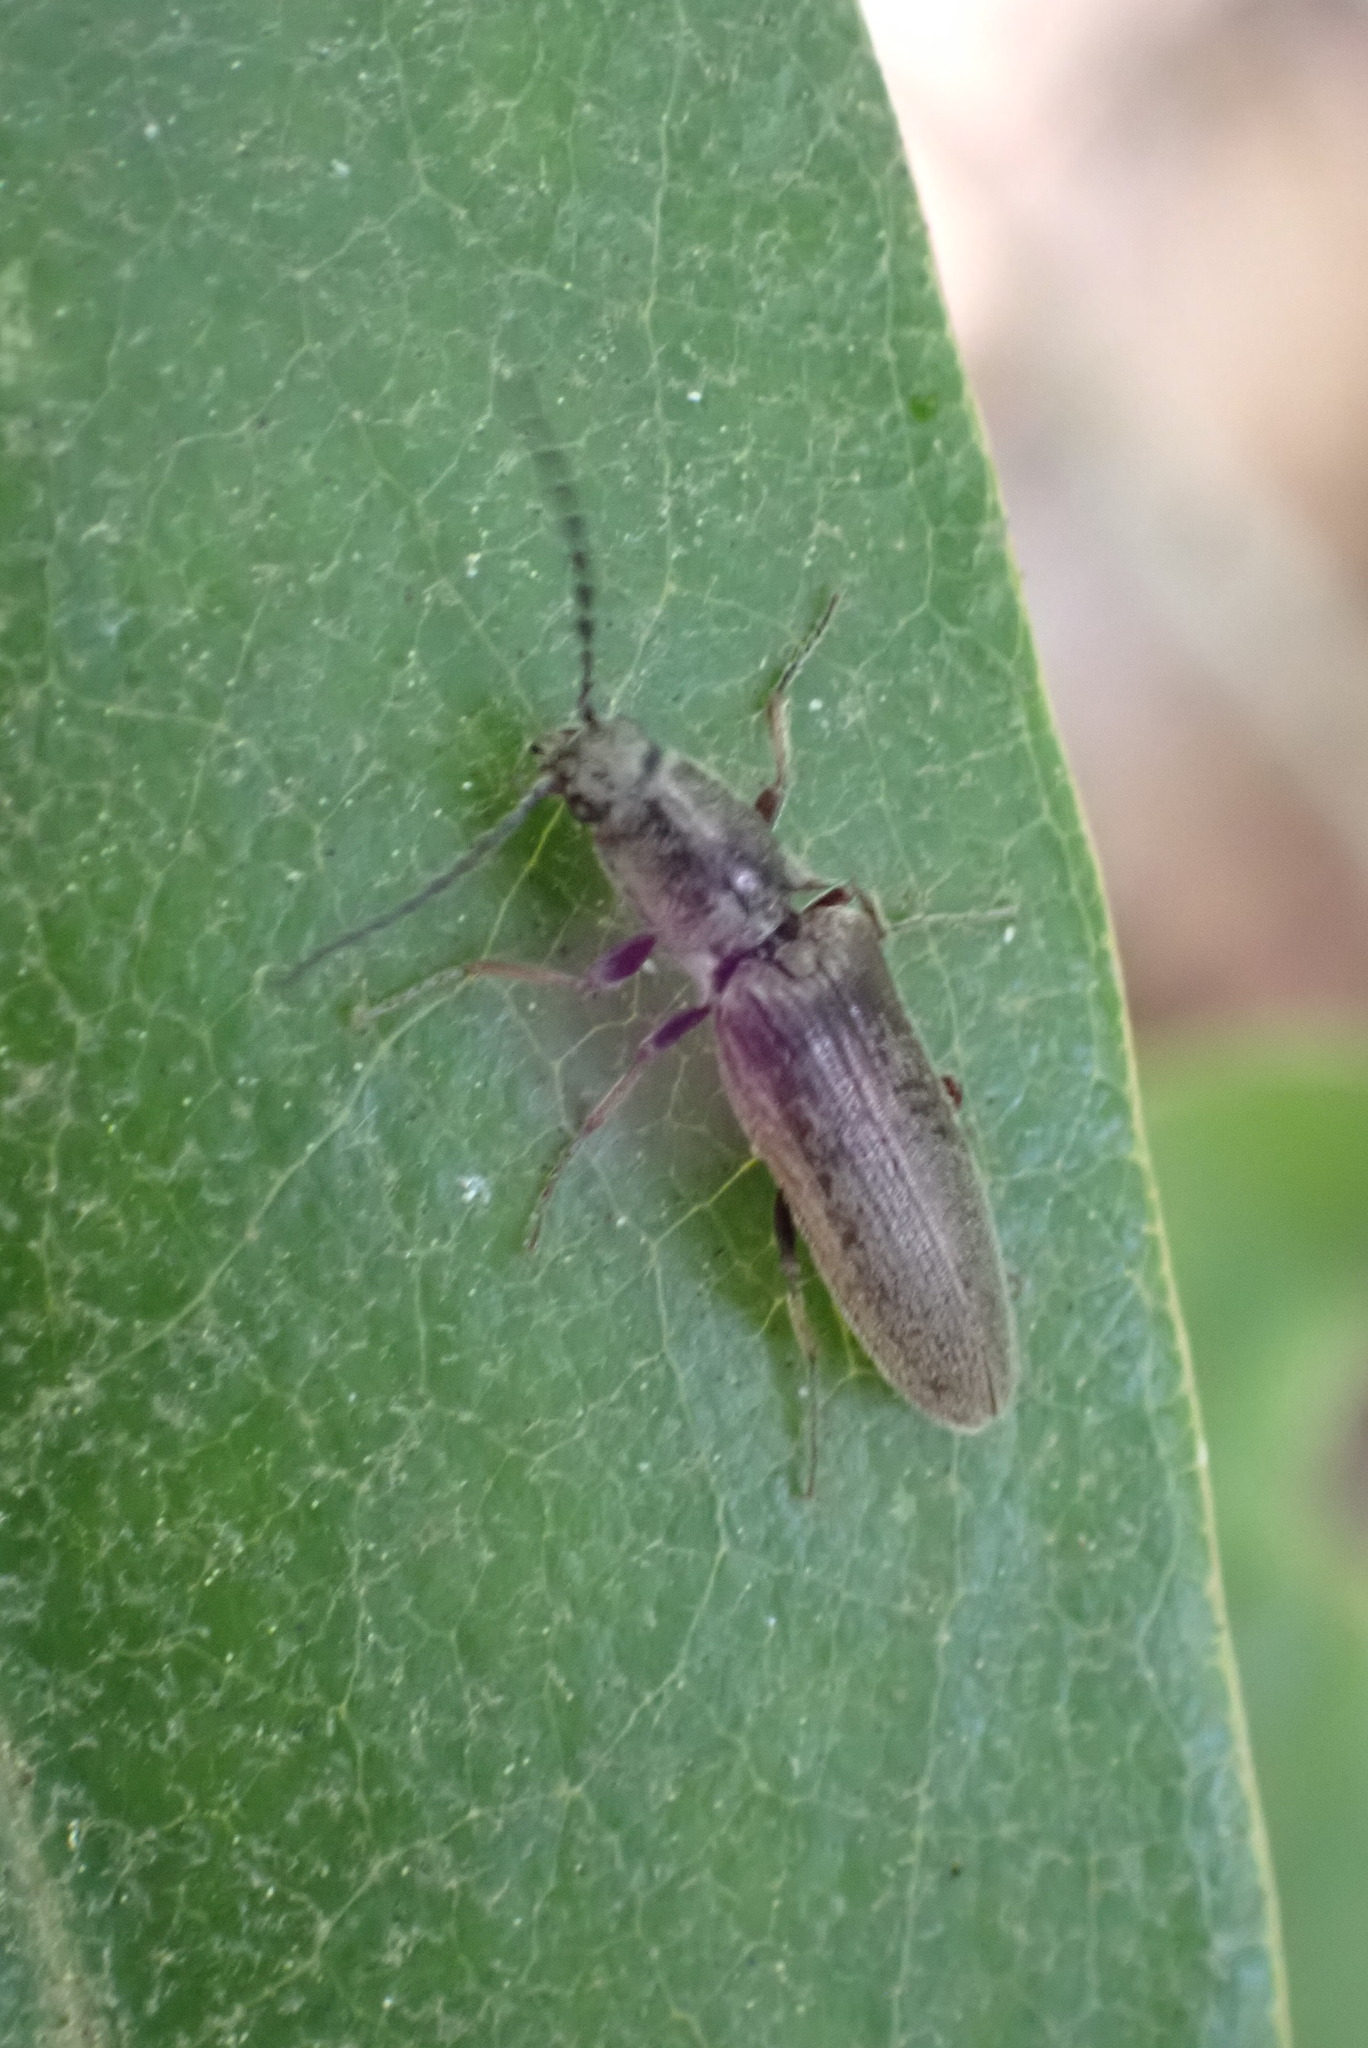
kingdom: Animalia
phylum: Arthropoda
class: Insecta
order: Coleoptera
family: Elateridae
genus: Sylvanelater
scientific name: Sylvanelater cylindriformis
